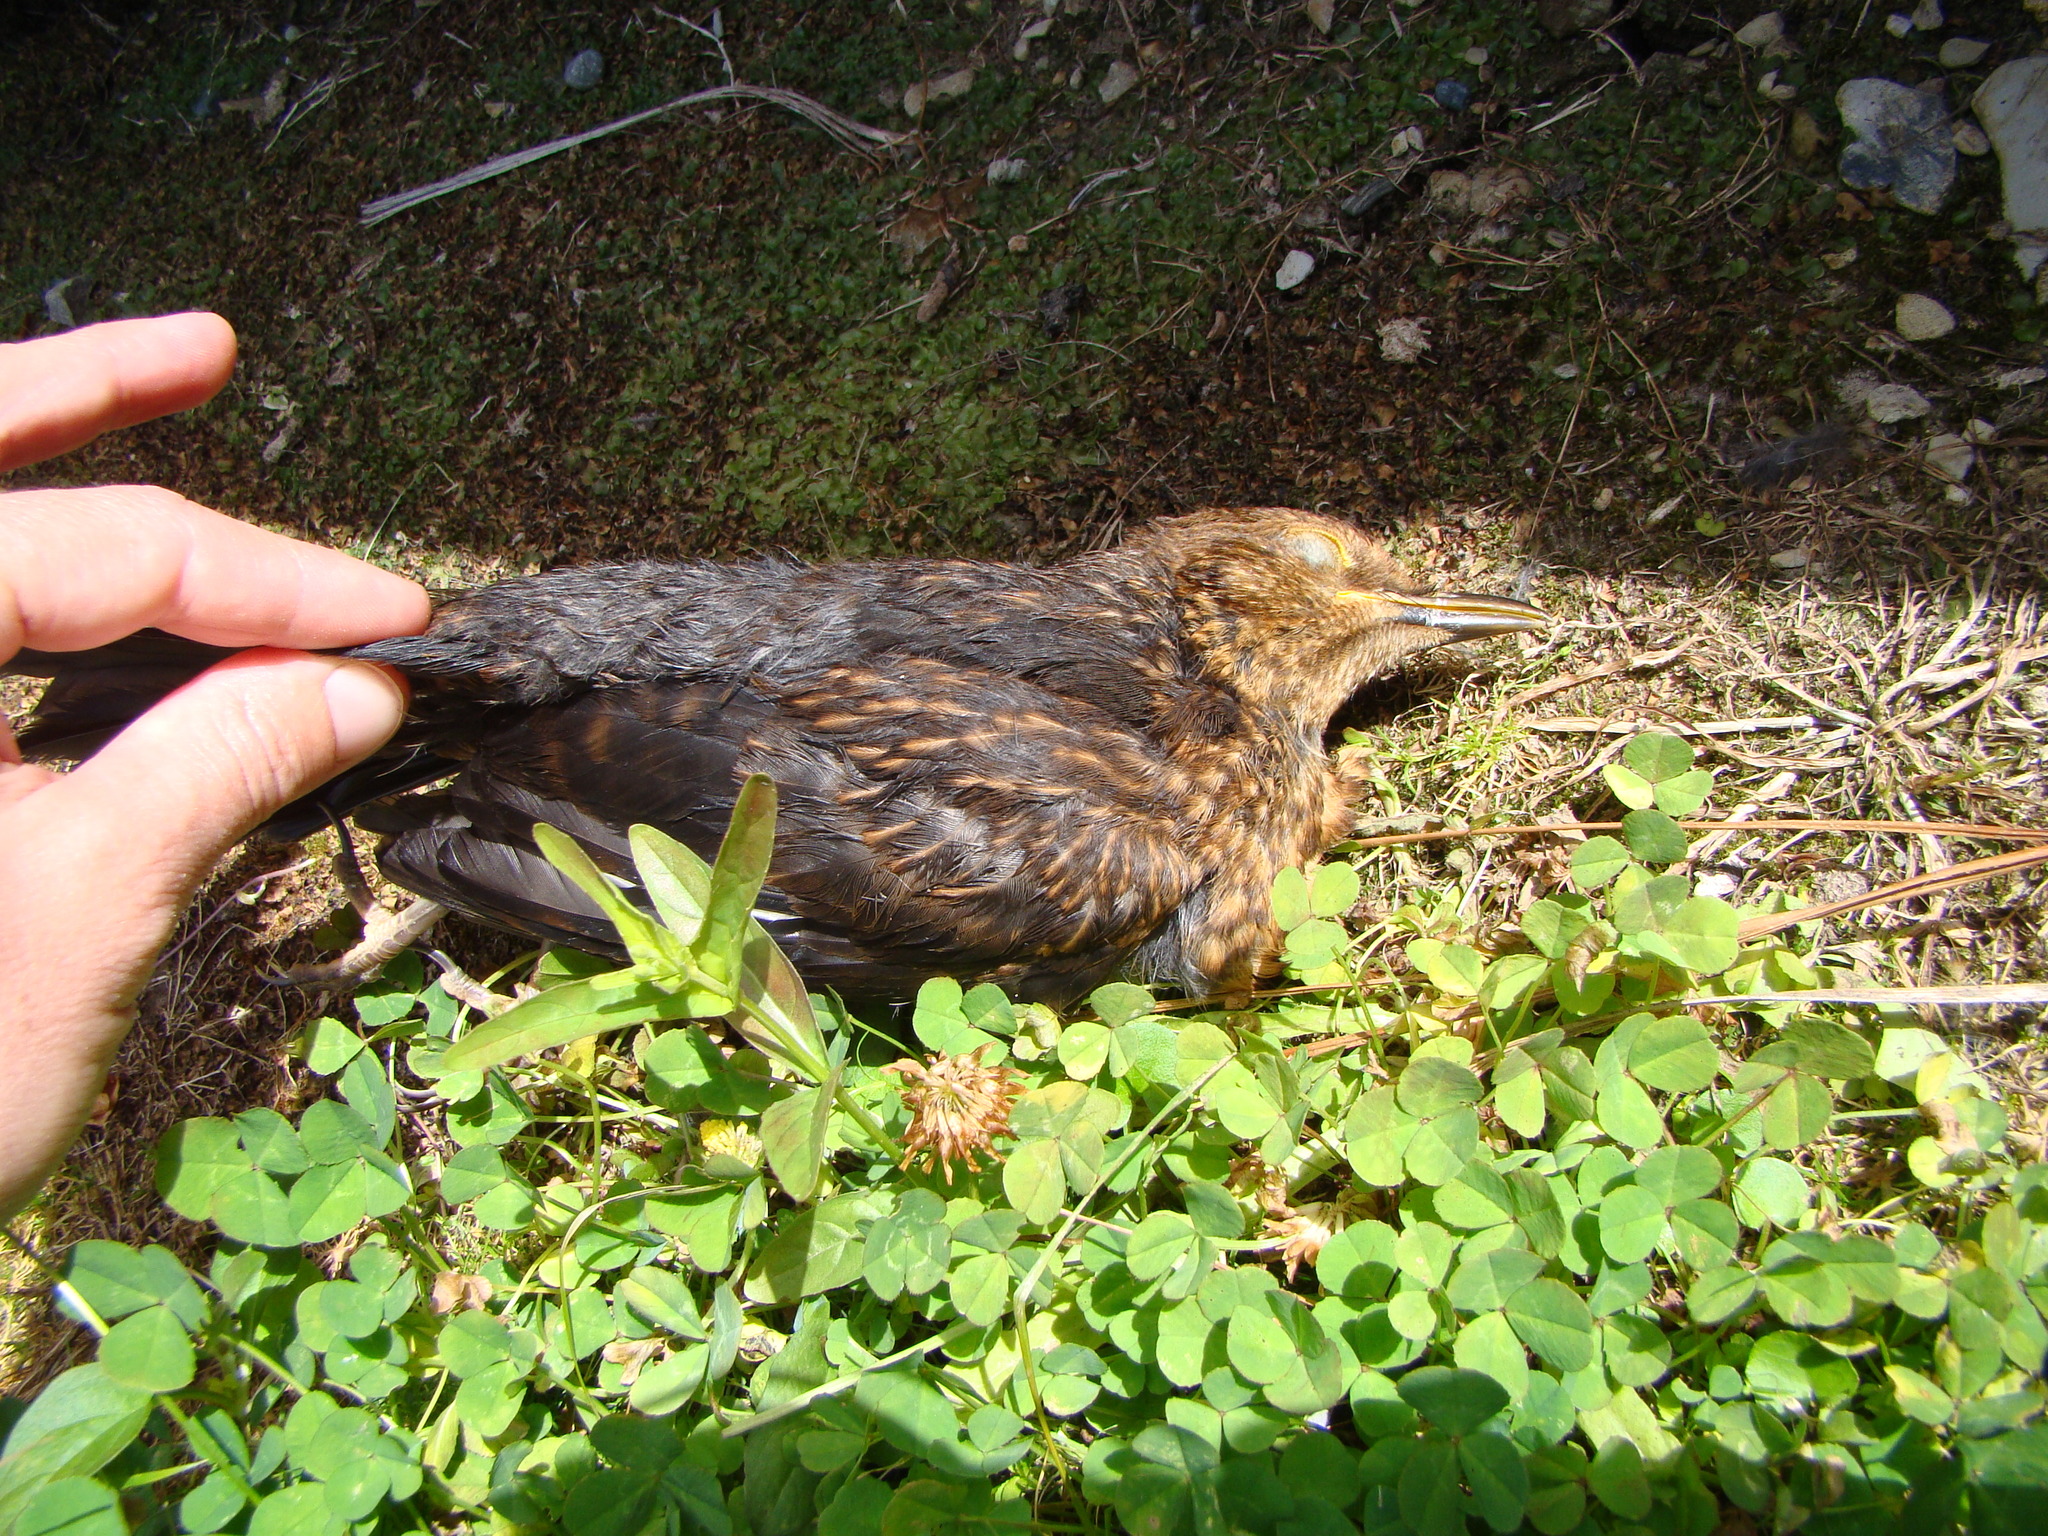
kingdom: Animalia
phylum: Chordata
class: Aves
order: Passeriformes
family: Turdidae
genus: Turdus
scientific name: Turdus merula
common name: Common blackbird
